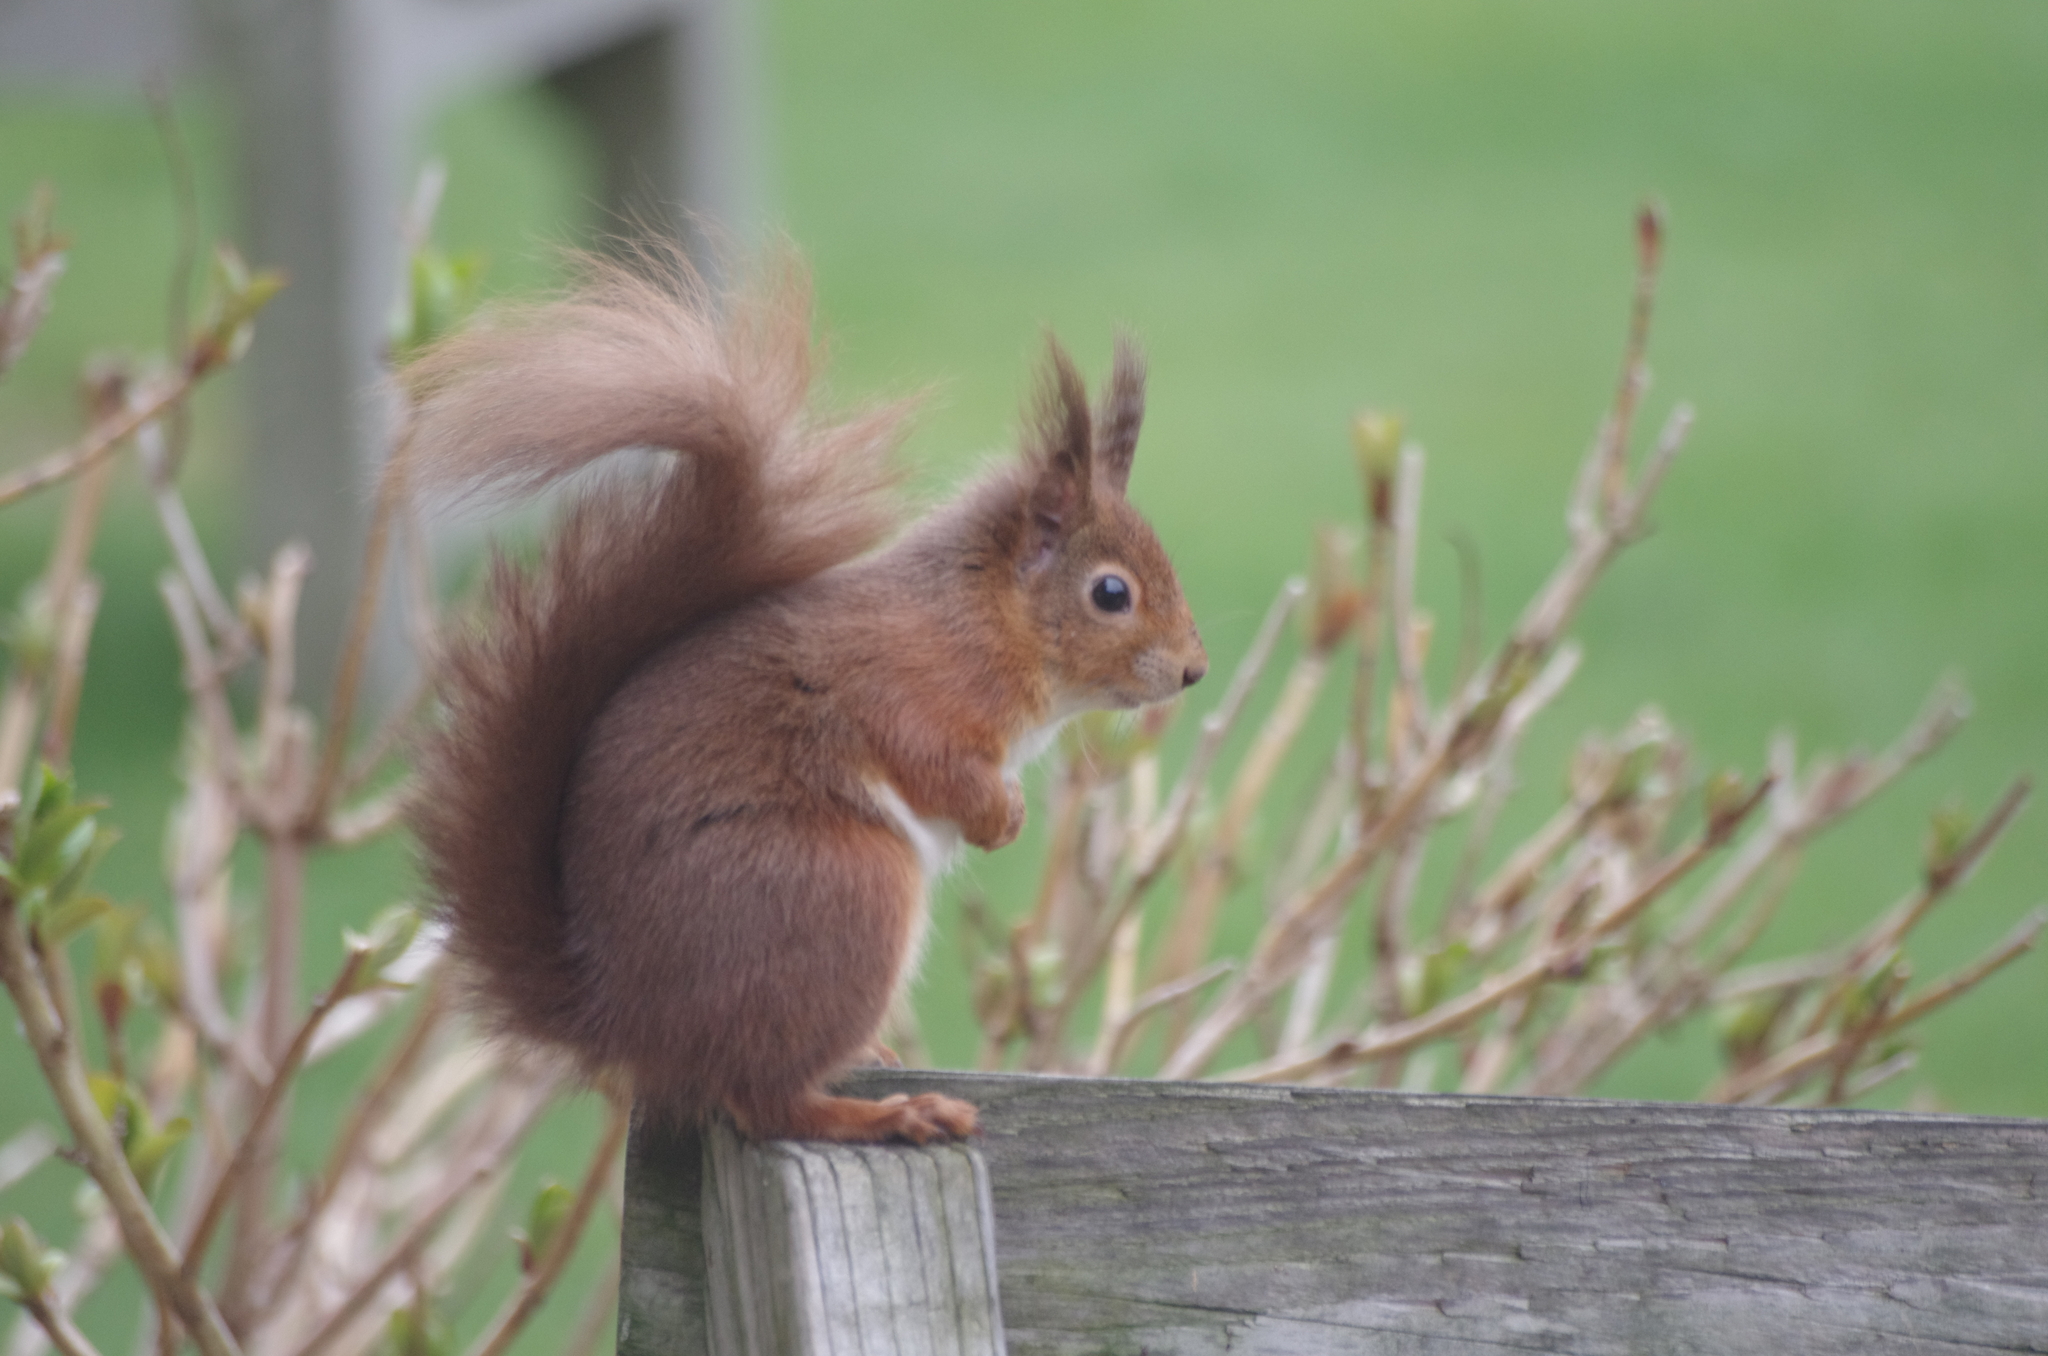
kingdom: Animalia
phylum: Chordata
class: Mammalia
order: Rodentia
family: Sciuridae
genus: Sciurus
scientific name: Sciurus vulgaris
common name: Eurasian red squirrel
